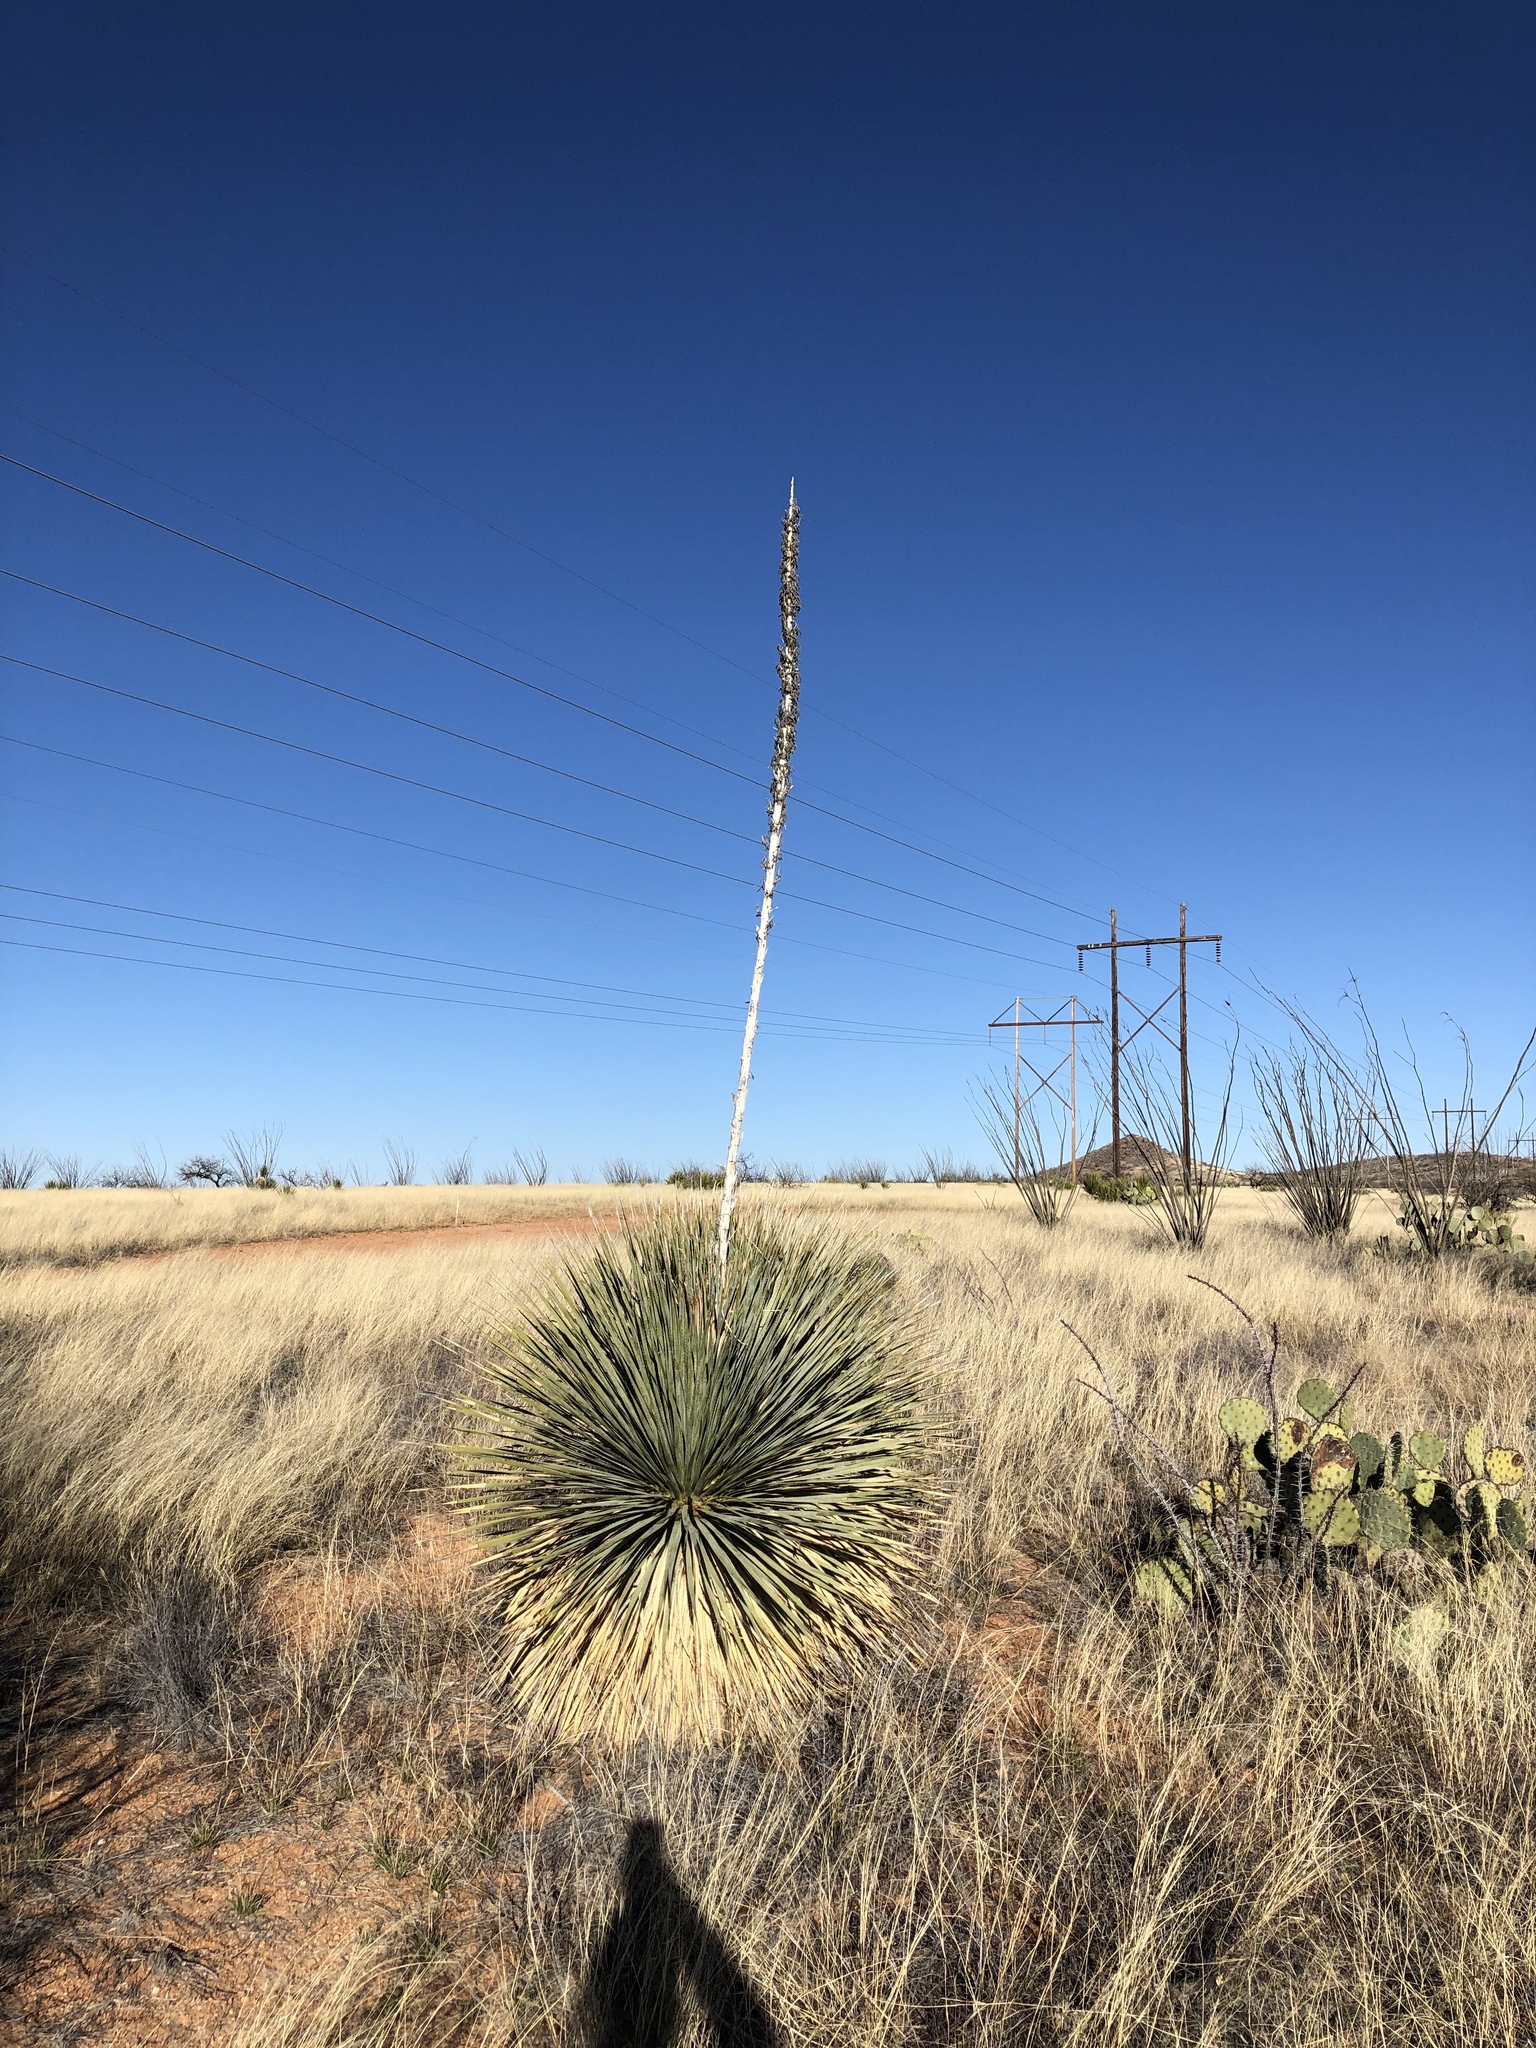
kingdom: Plantae
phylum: Tracheophyta
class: Liliopsida
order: Asparagales
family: Asparagaceae
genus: Dasylirion
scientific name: Dasylirion wheeleri
